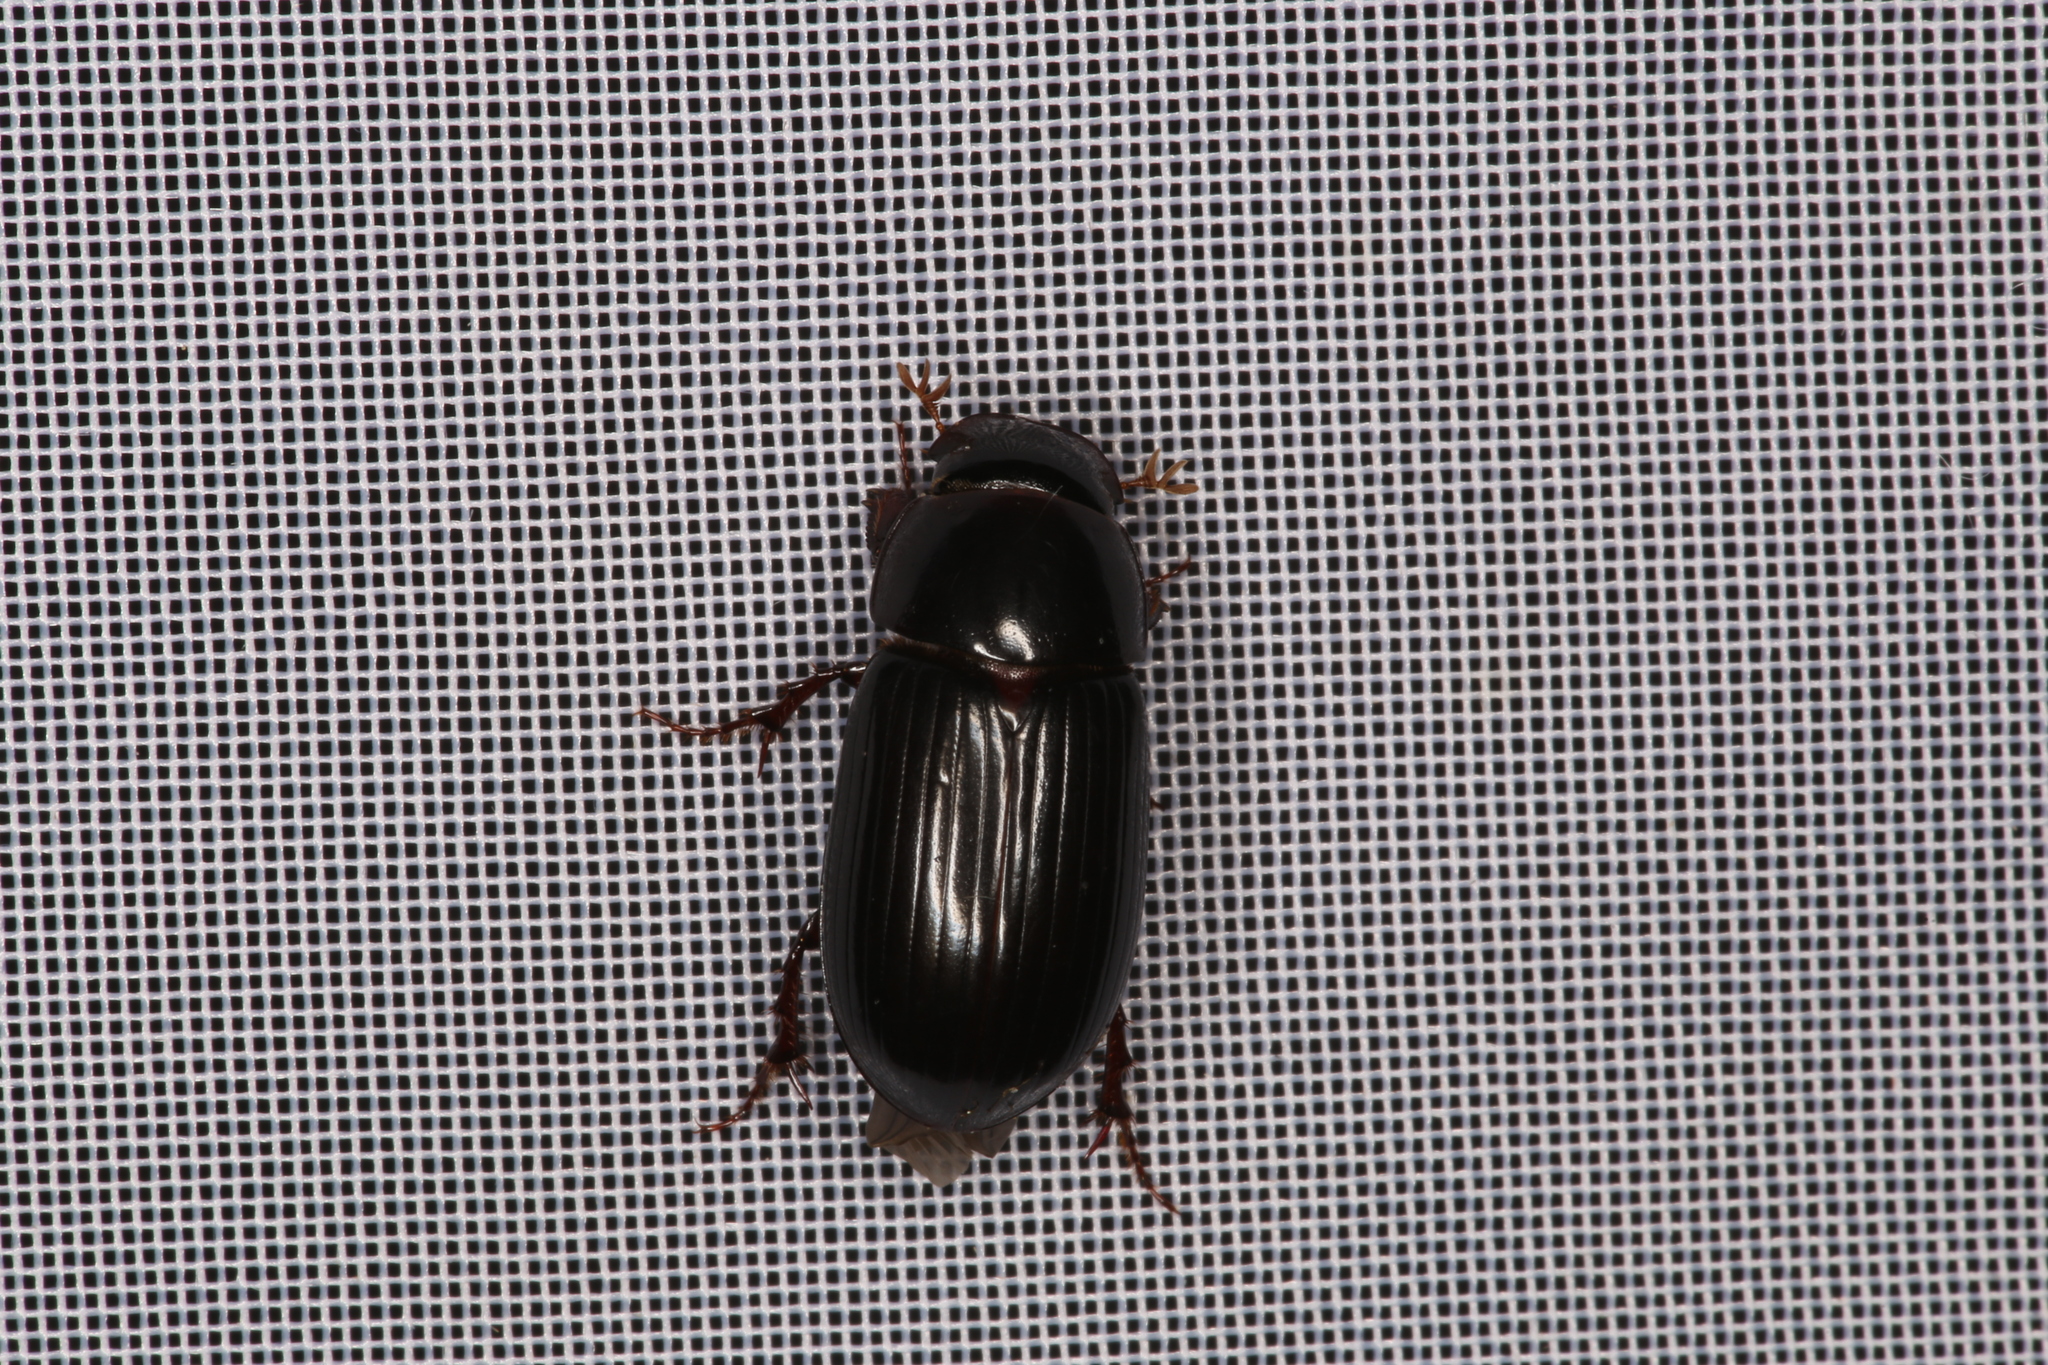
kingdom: Animalia
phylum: Arthropoda
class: Insecta
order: Coleoptera
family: Scarabaeidae
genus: Acrossus
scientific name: Acrossus rufipes
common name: Night-flying dung beetle
